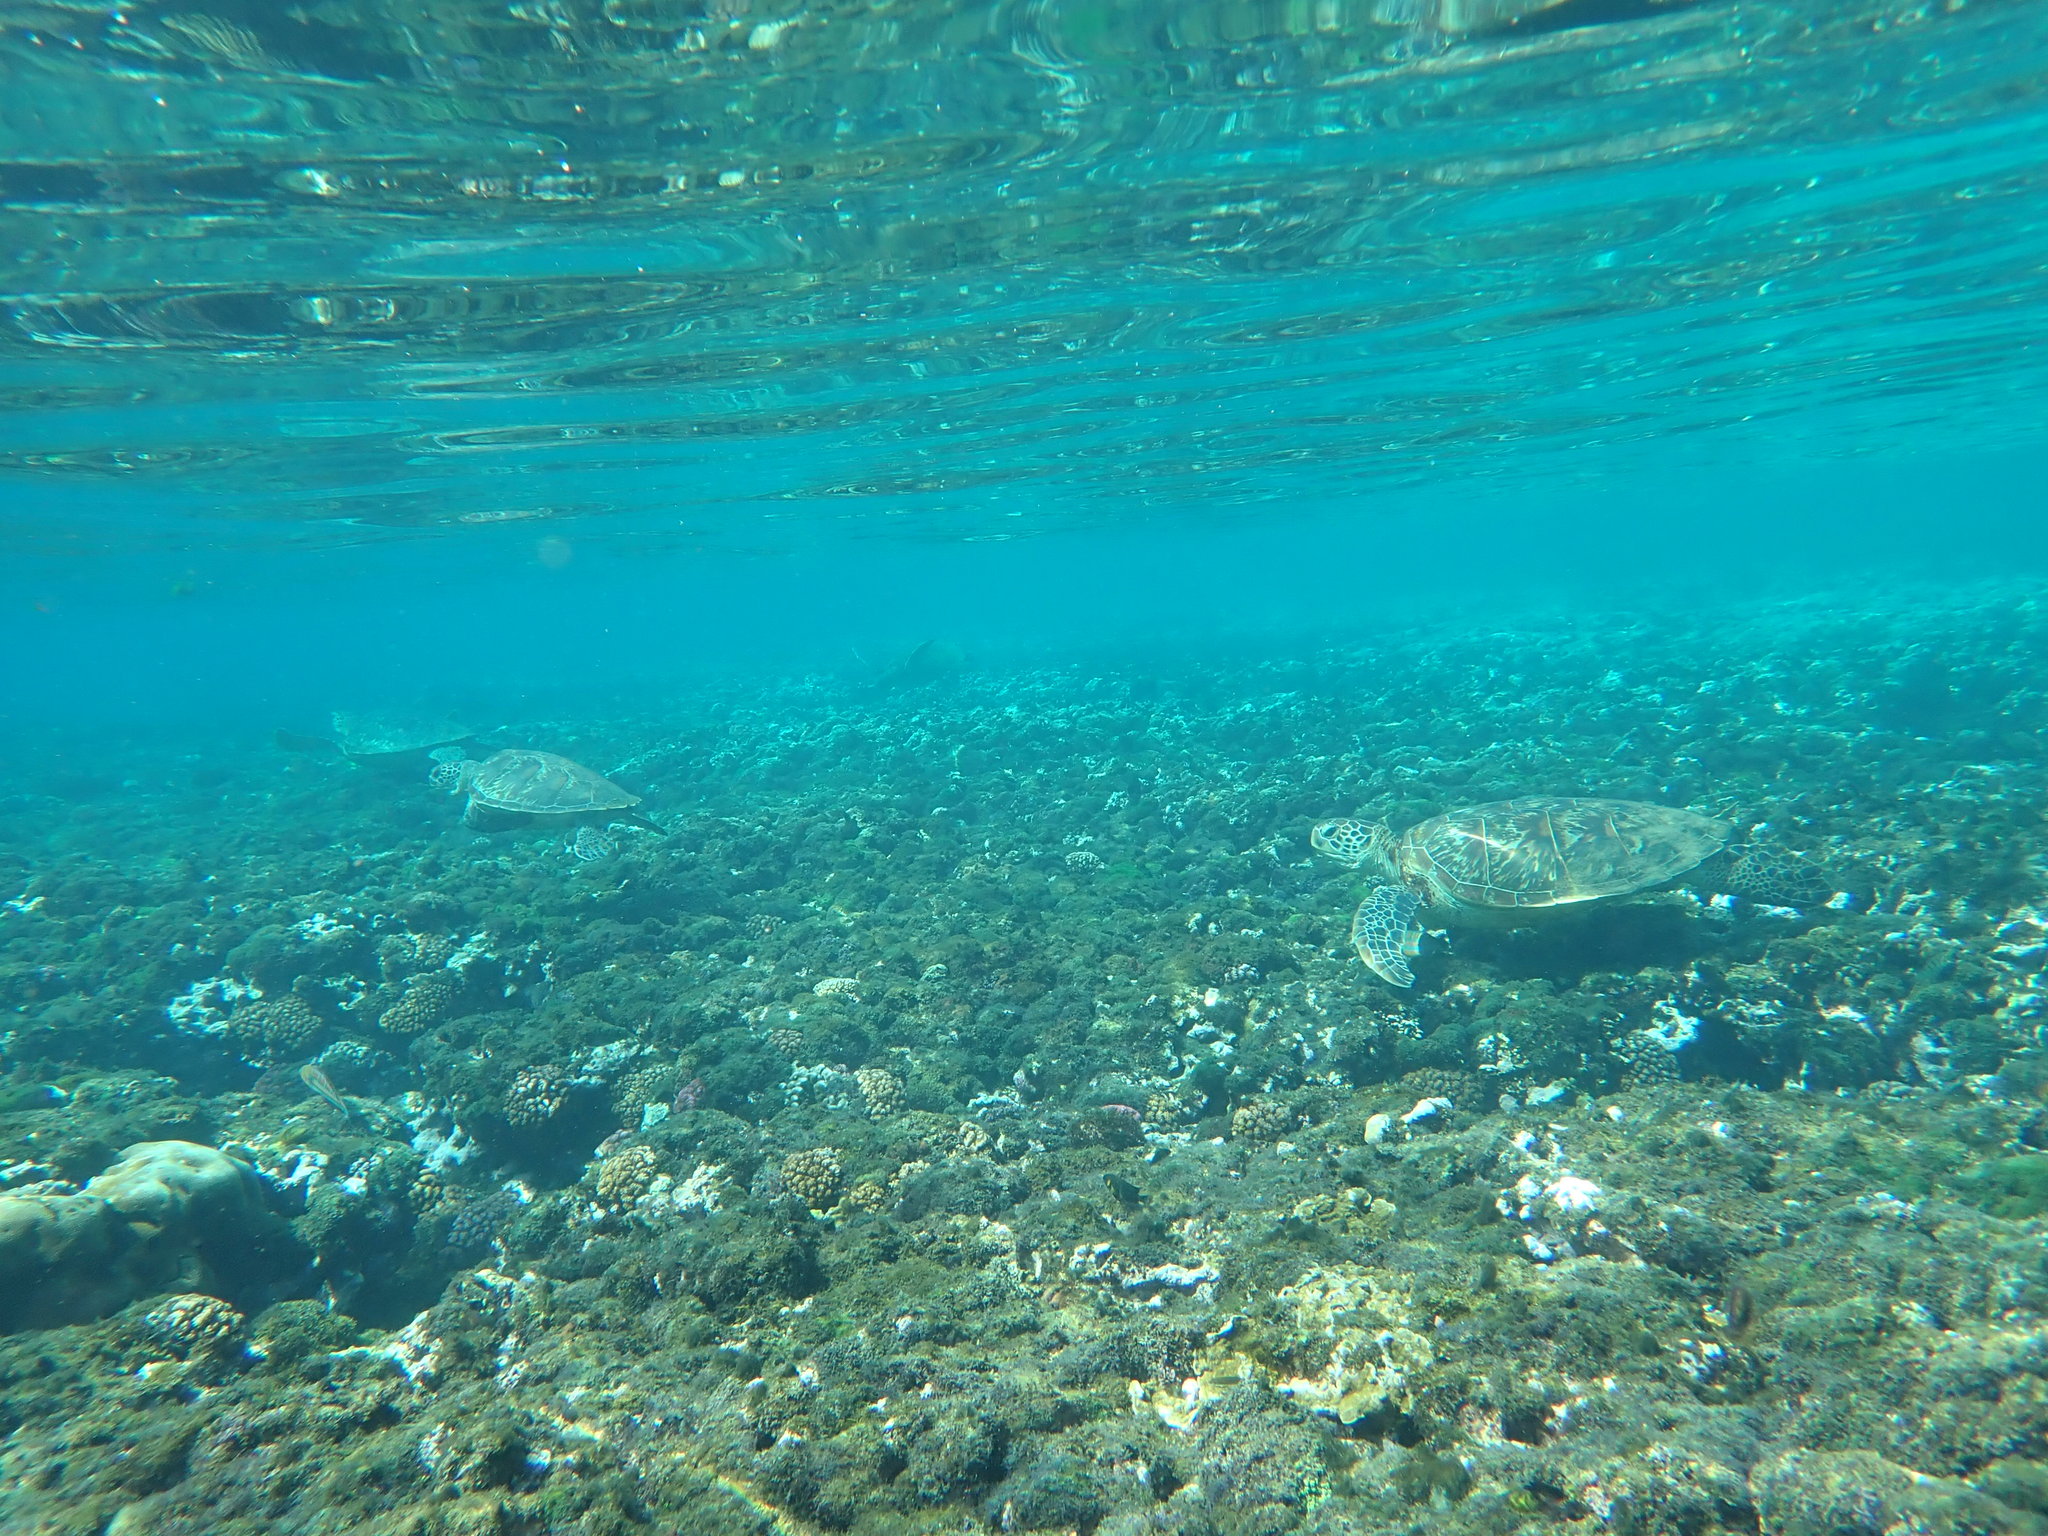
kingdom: Animalia
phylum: Chordata
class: Testudines
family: Cheloniidae
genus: Chelonia
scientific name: Chelonia mydas
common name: Green turtle
